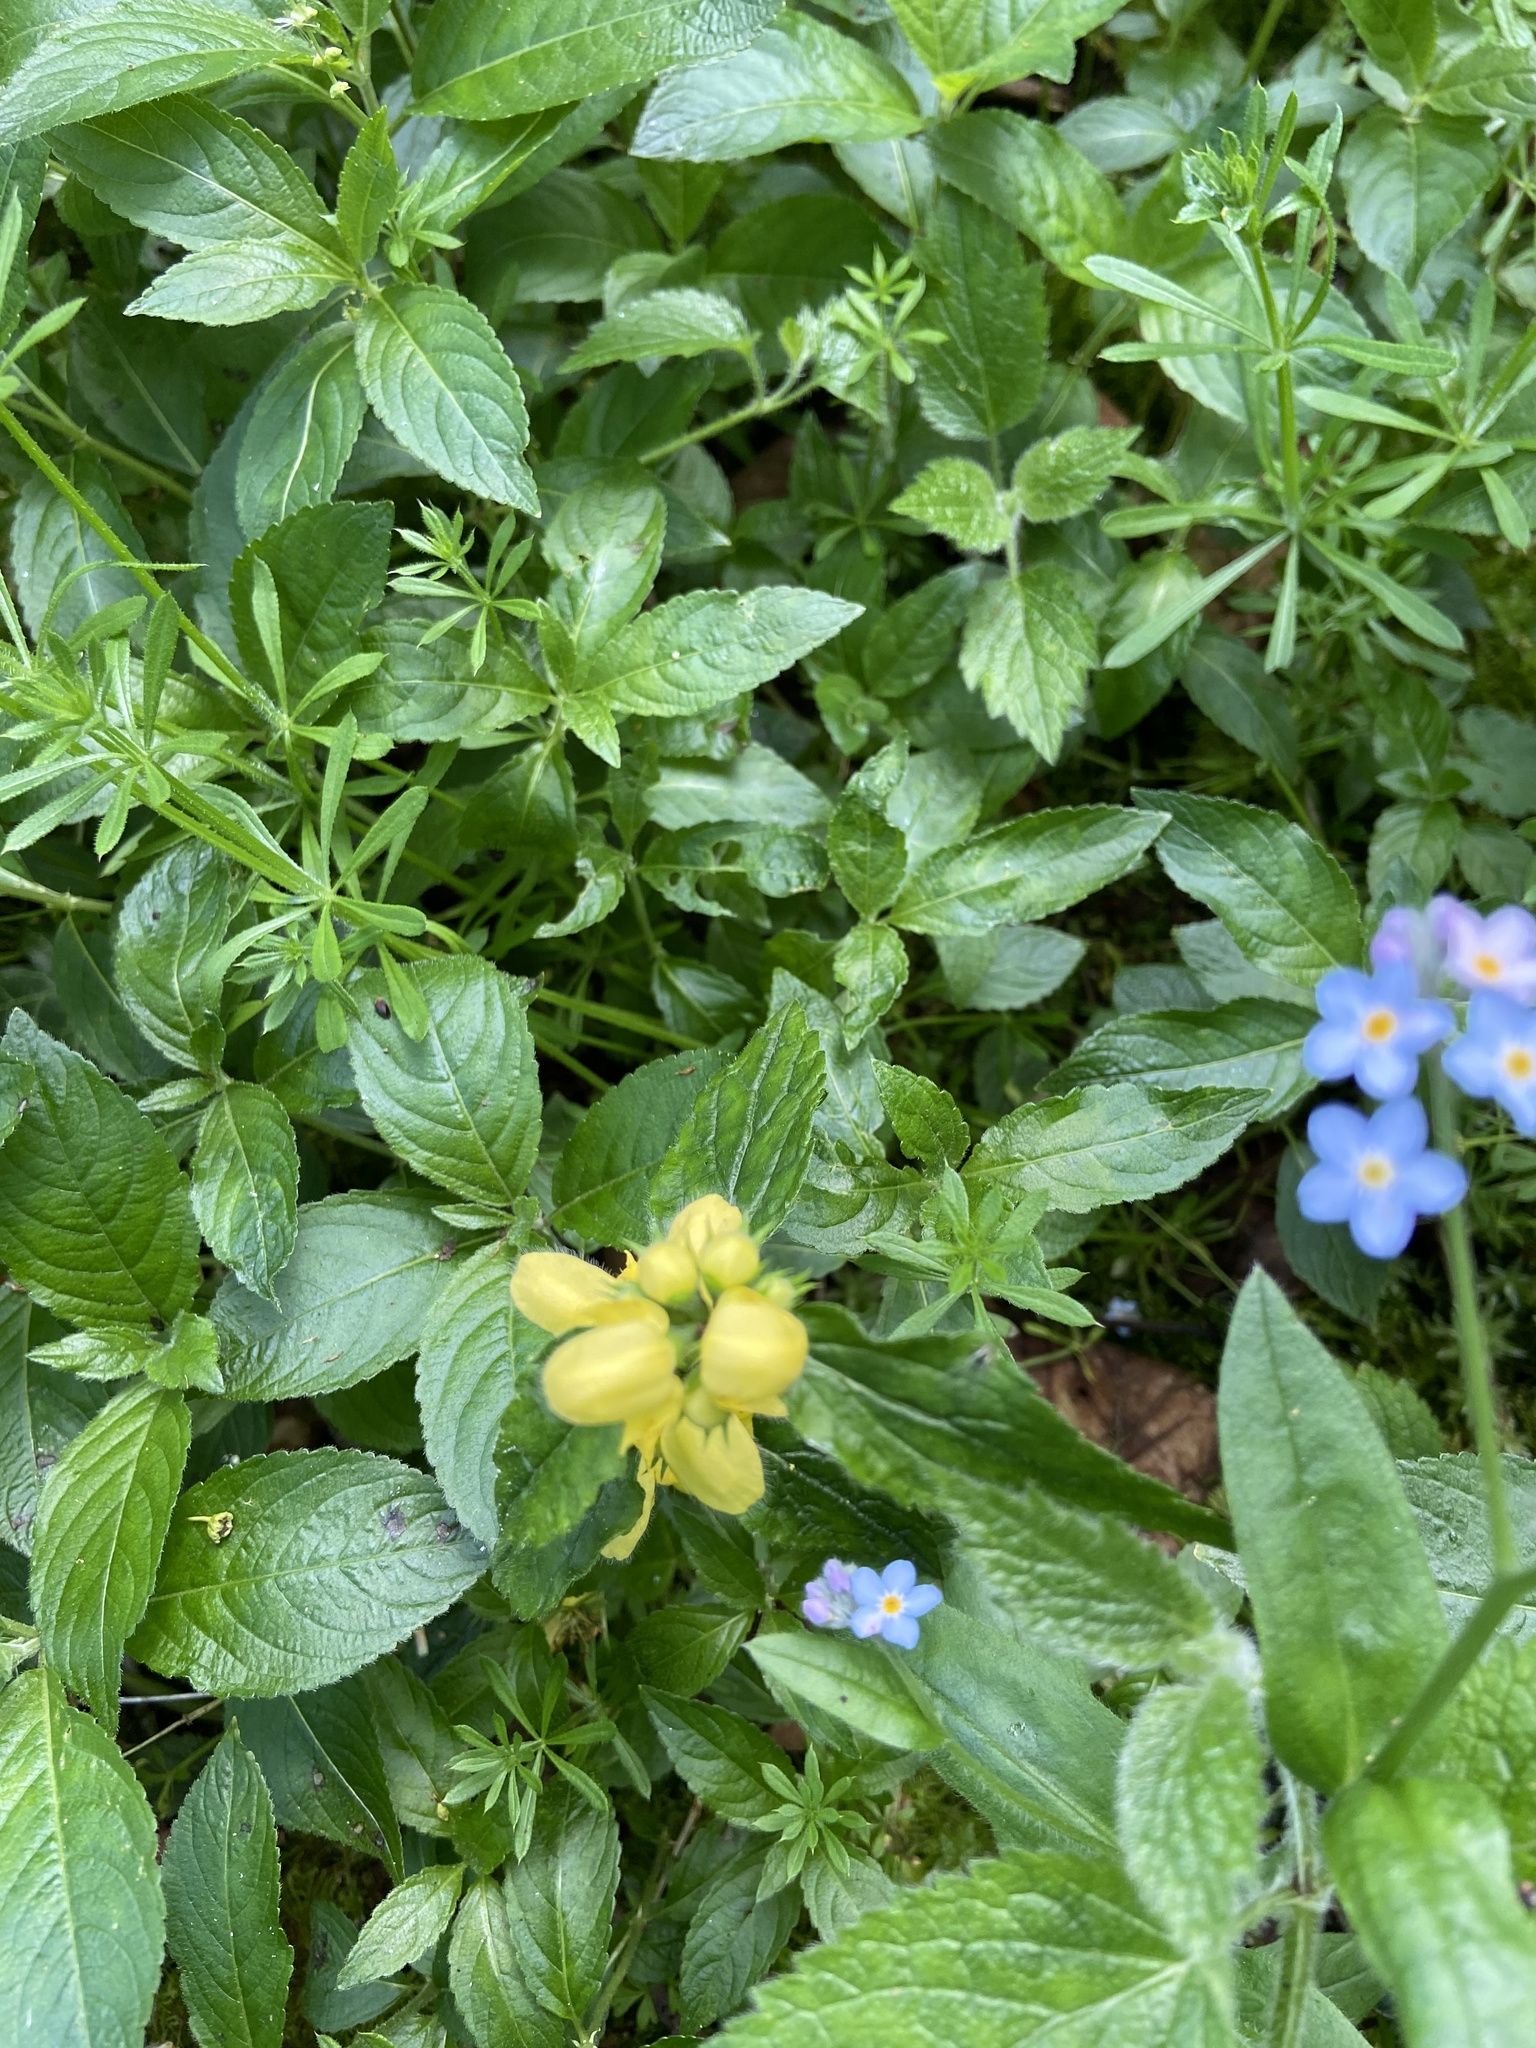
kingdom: Plantae
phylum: Tracheophyta
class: Magnoliopsida
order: Lamiales
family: Lamiaceae
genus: Lamium
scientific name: Lamium galeobdolon
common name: Yellow archangel
